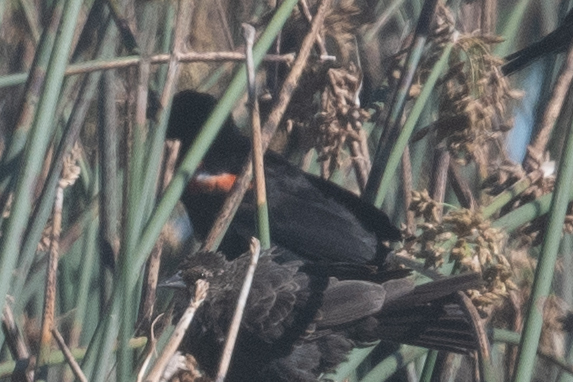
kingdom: Animalia
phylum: Chordata
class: Aves
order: Passeriformes
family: Icteridae
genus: Agelaius
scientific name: Agelaius tricolor
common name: Tricolored blackbird
